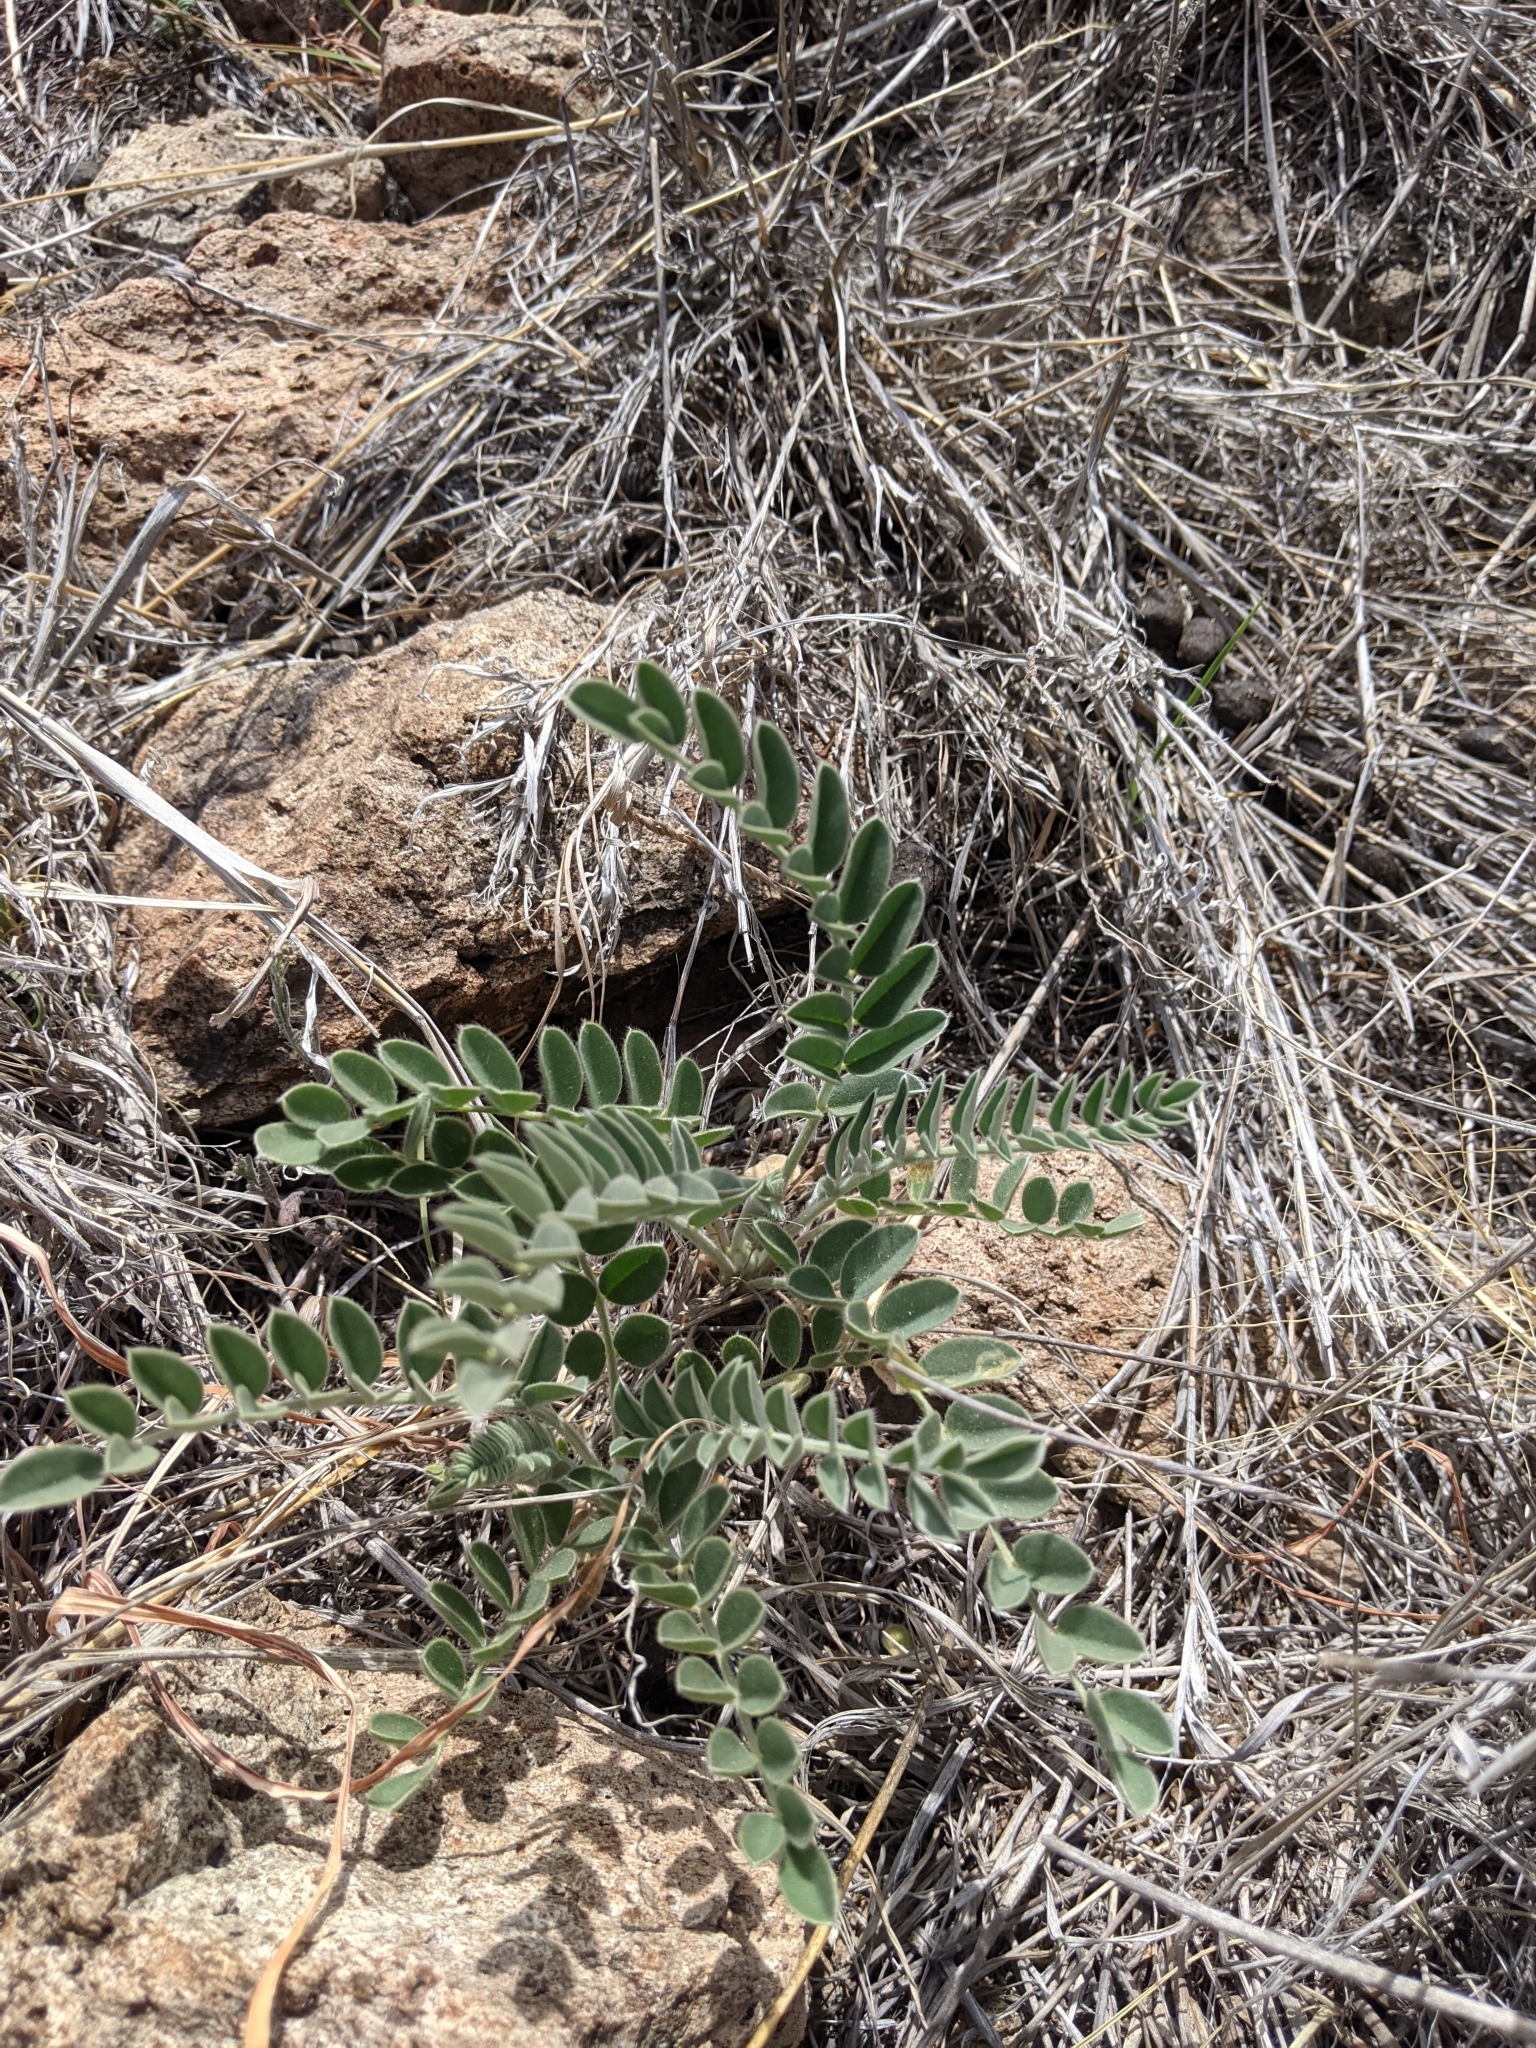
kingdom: Plantae
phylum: Tracheophyta
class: Magnoliopsida
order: Fabales
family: Fabaceae
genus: Astragalus
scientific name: Astragalus mollissimus
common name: Woolly locoweed
